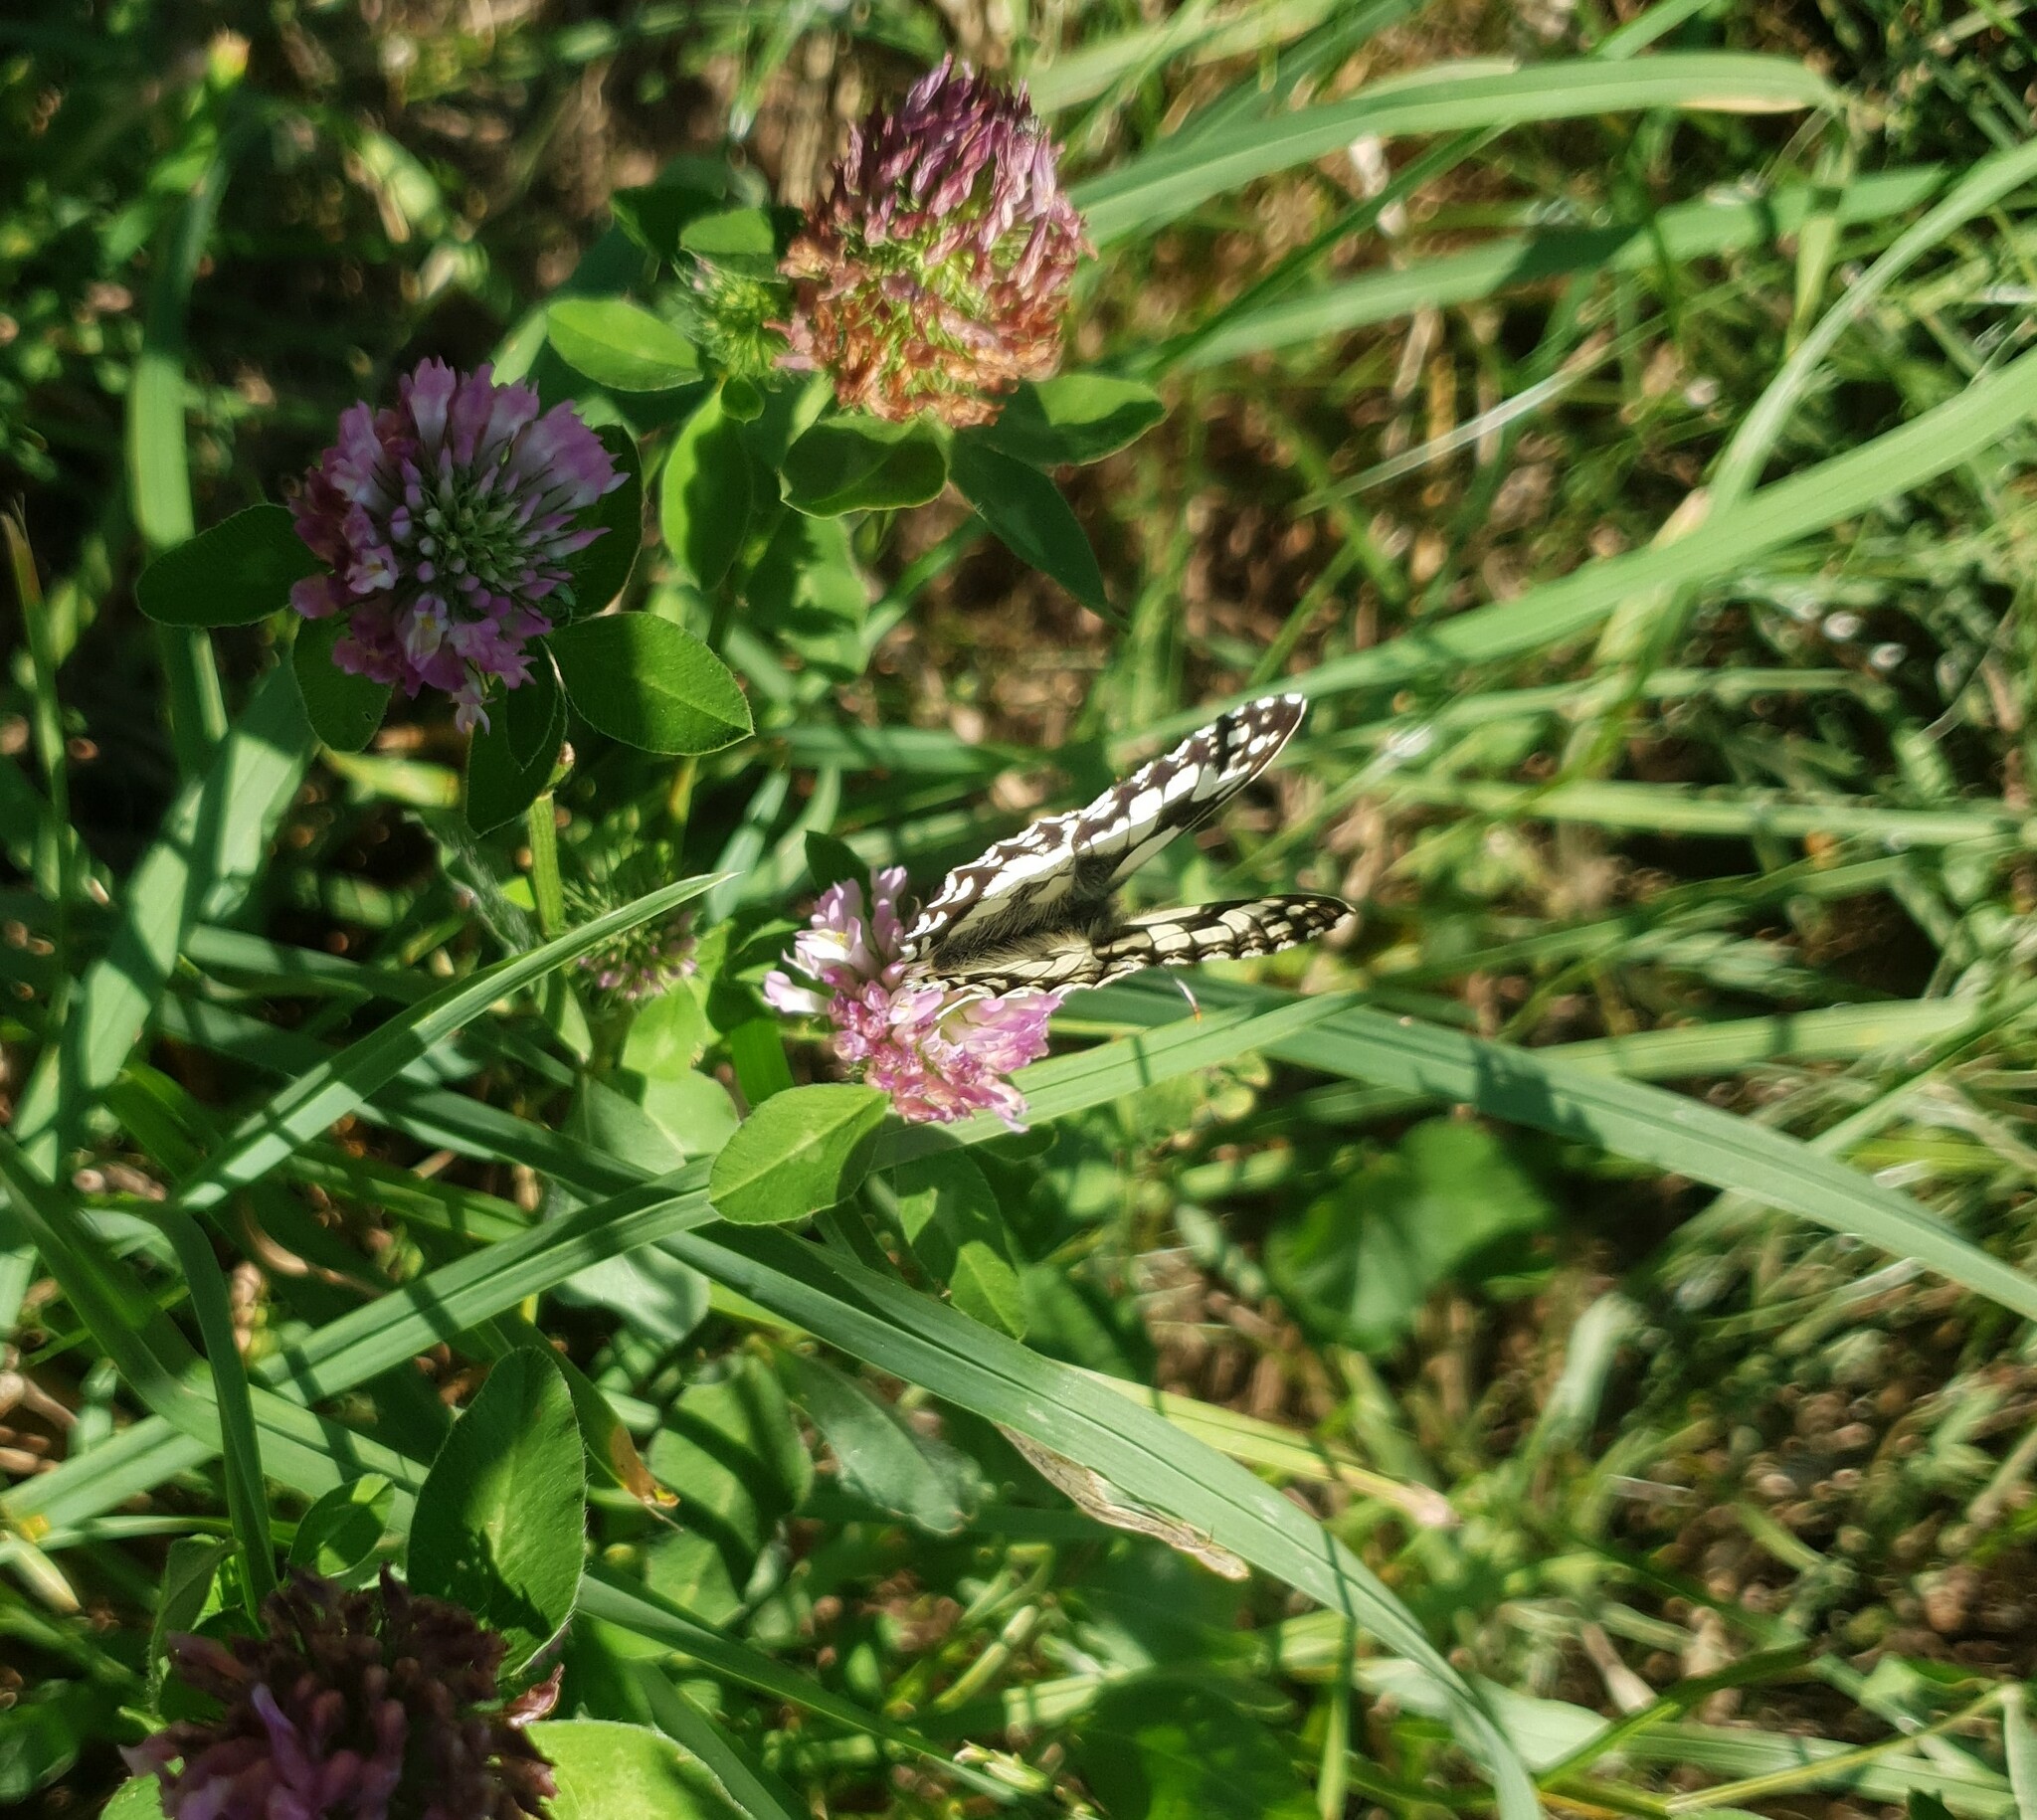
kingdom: Animalia
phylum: Arthropoda
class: Insecta
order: Lepidoptera
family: Nymphalidae
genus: Melanargia
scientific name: Melanargia galathea
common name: Marbled white
